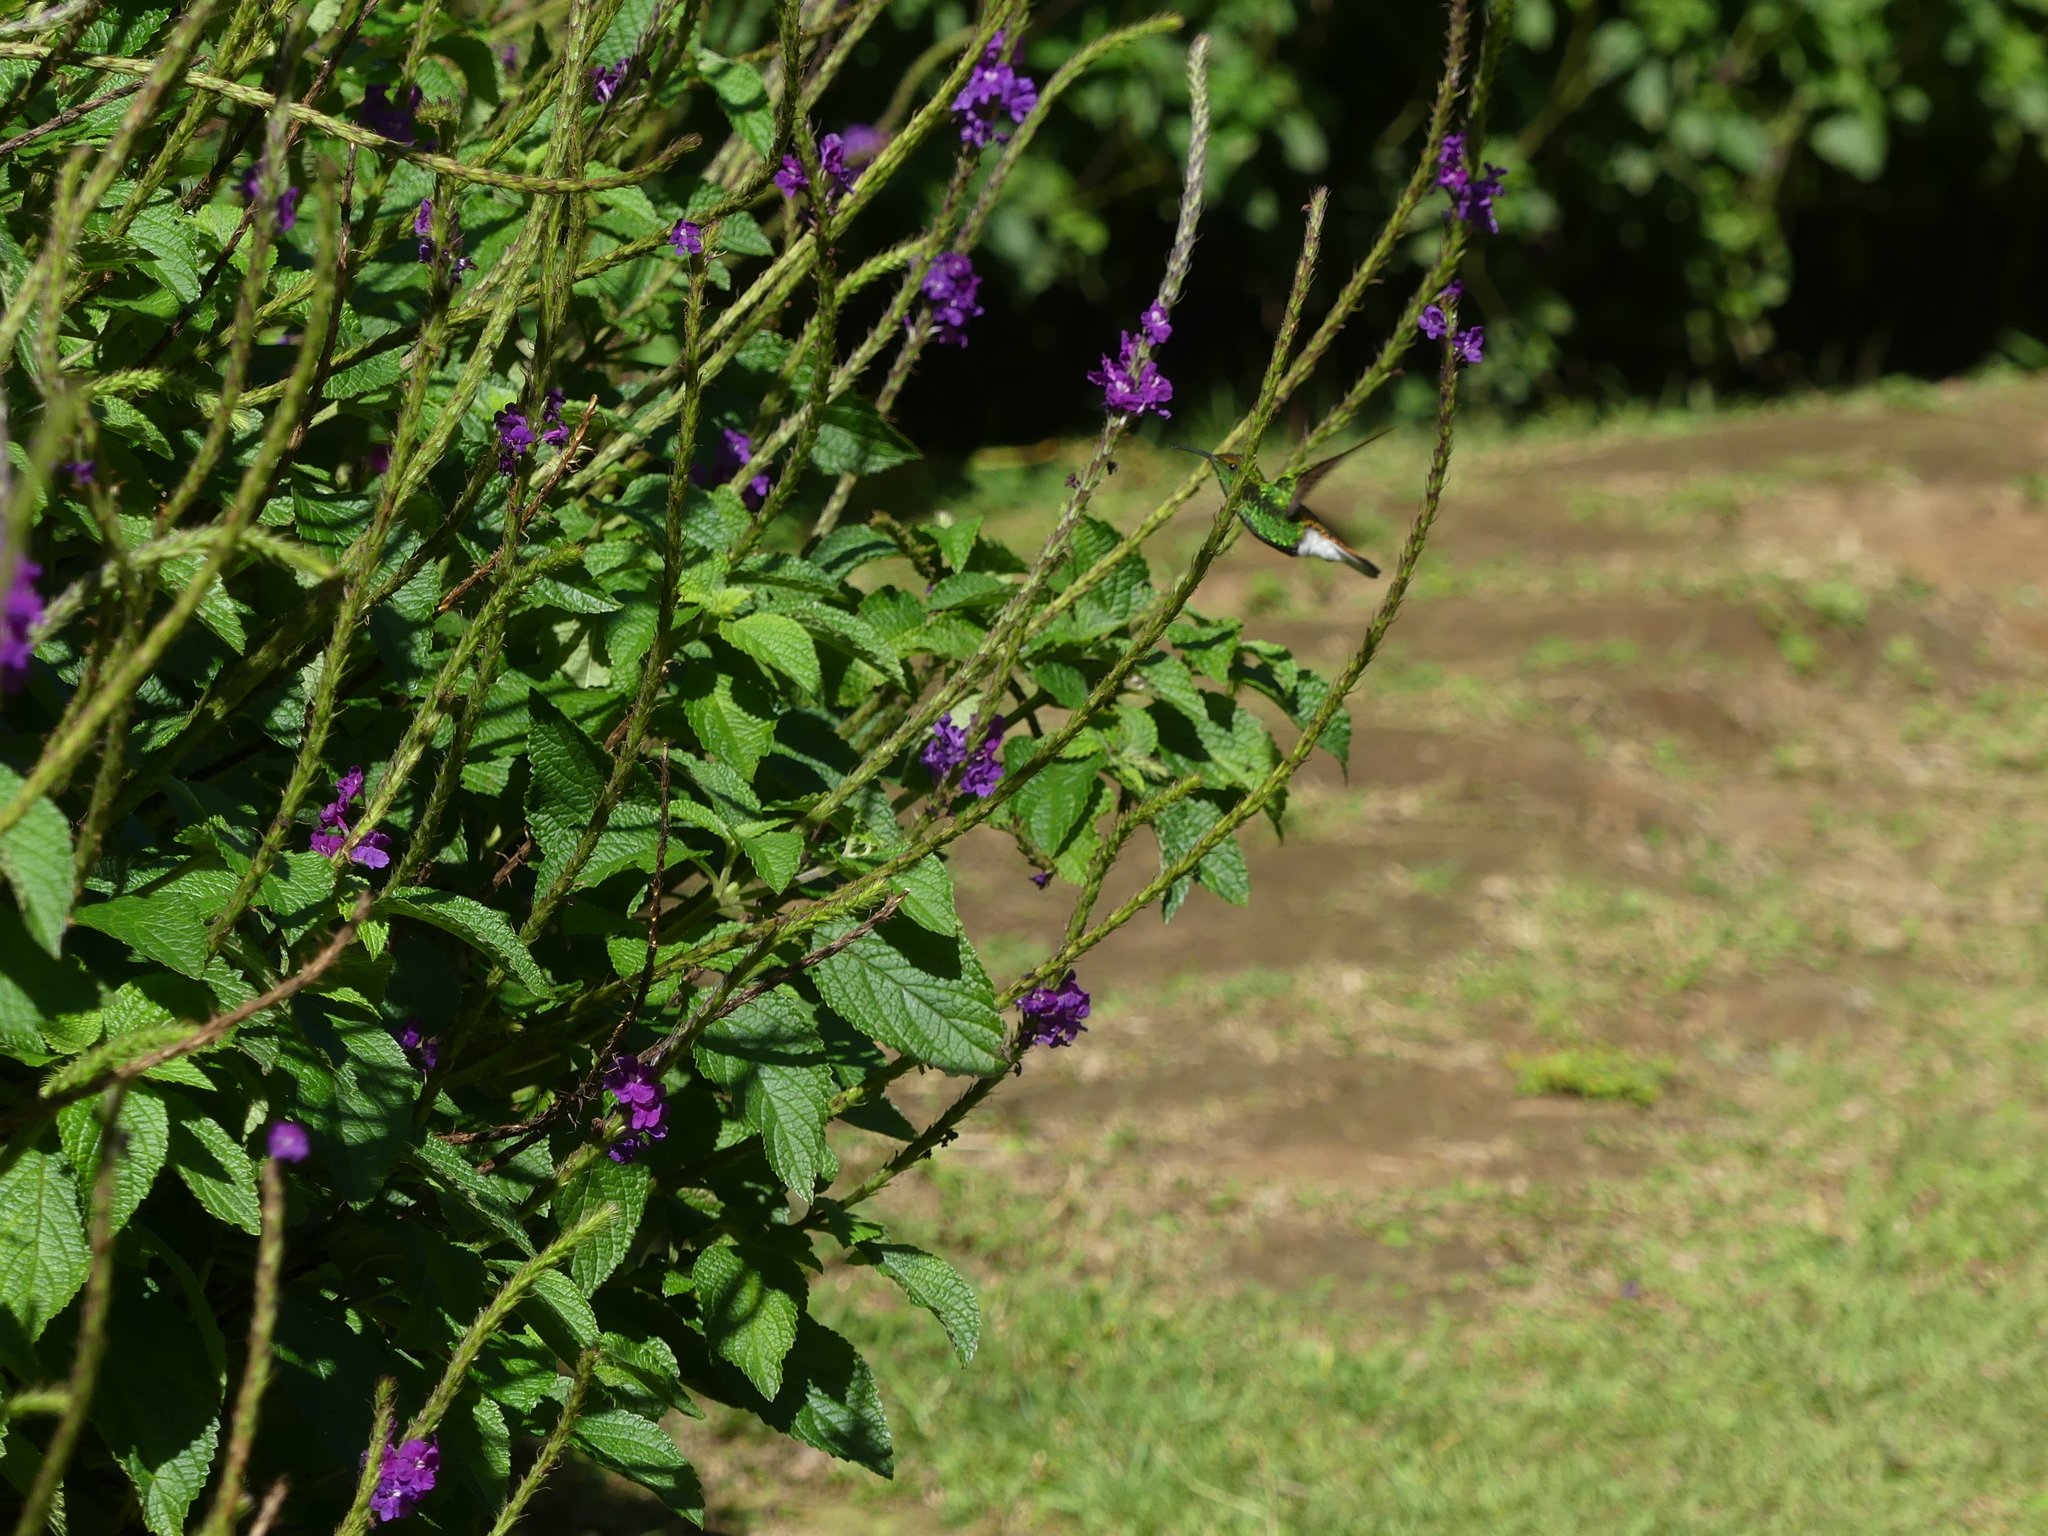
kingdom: Animalia
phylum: Chordata
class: Aves
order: Apodiformes
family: Trochilidae
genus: Microchera
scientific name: Microchera cupreiceps
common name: Coppery-headed emerald
